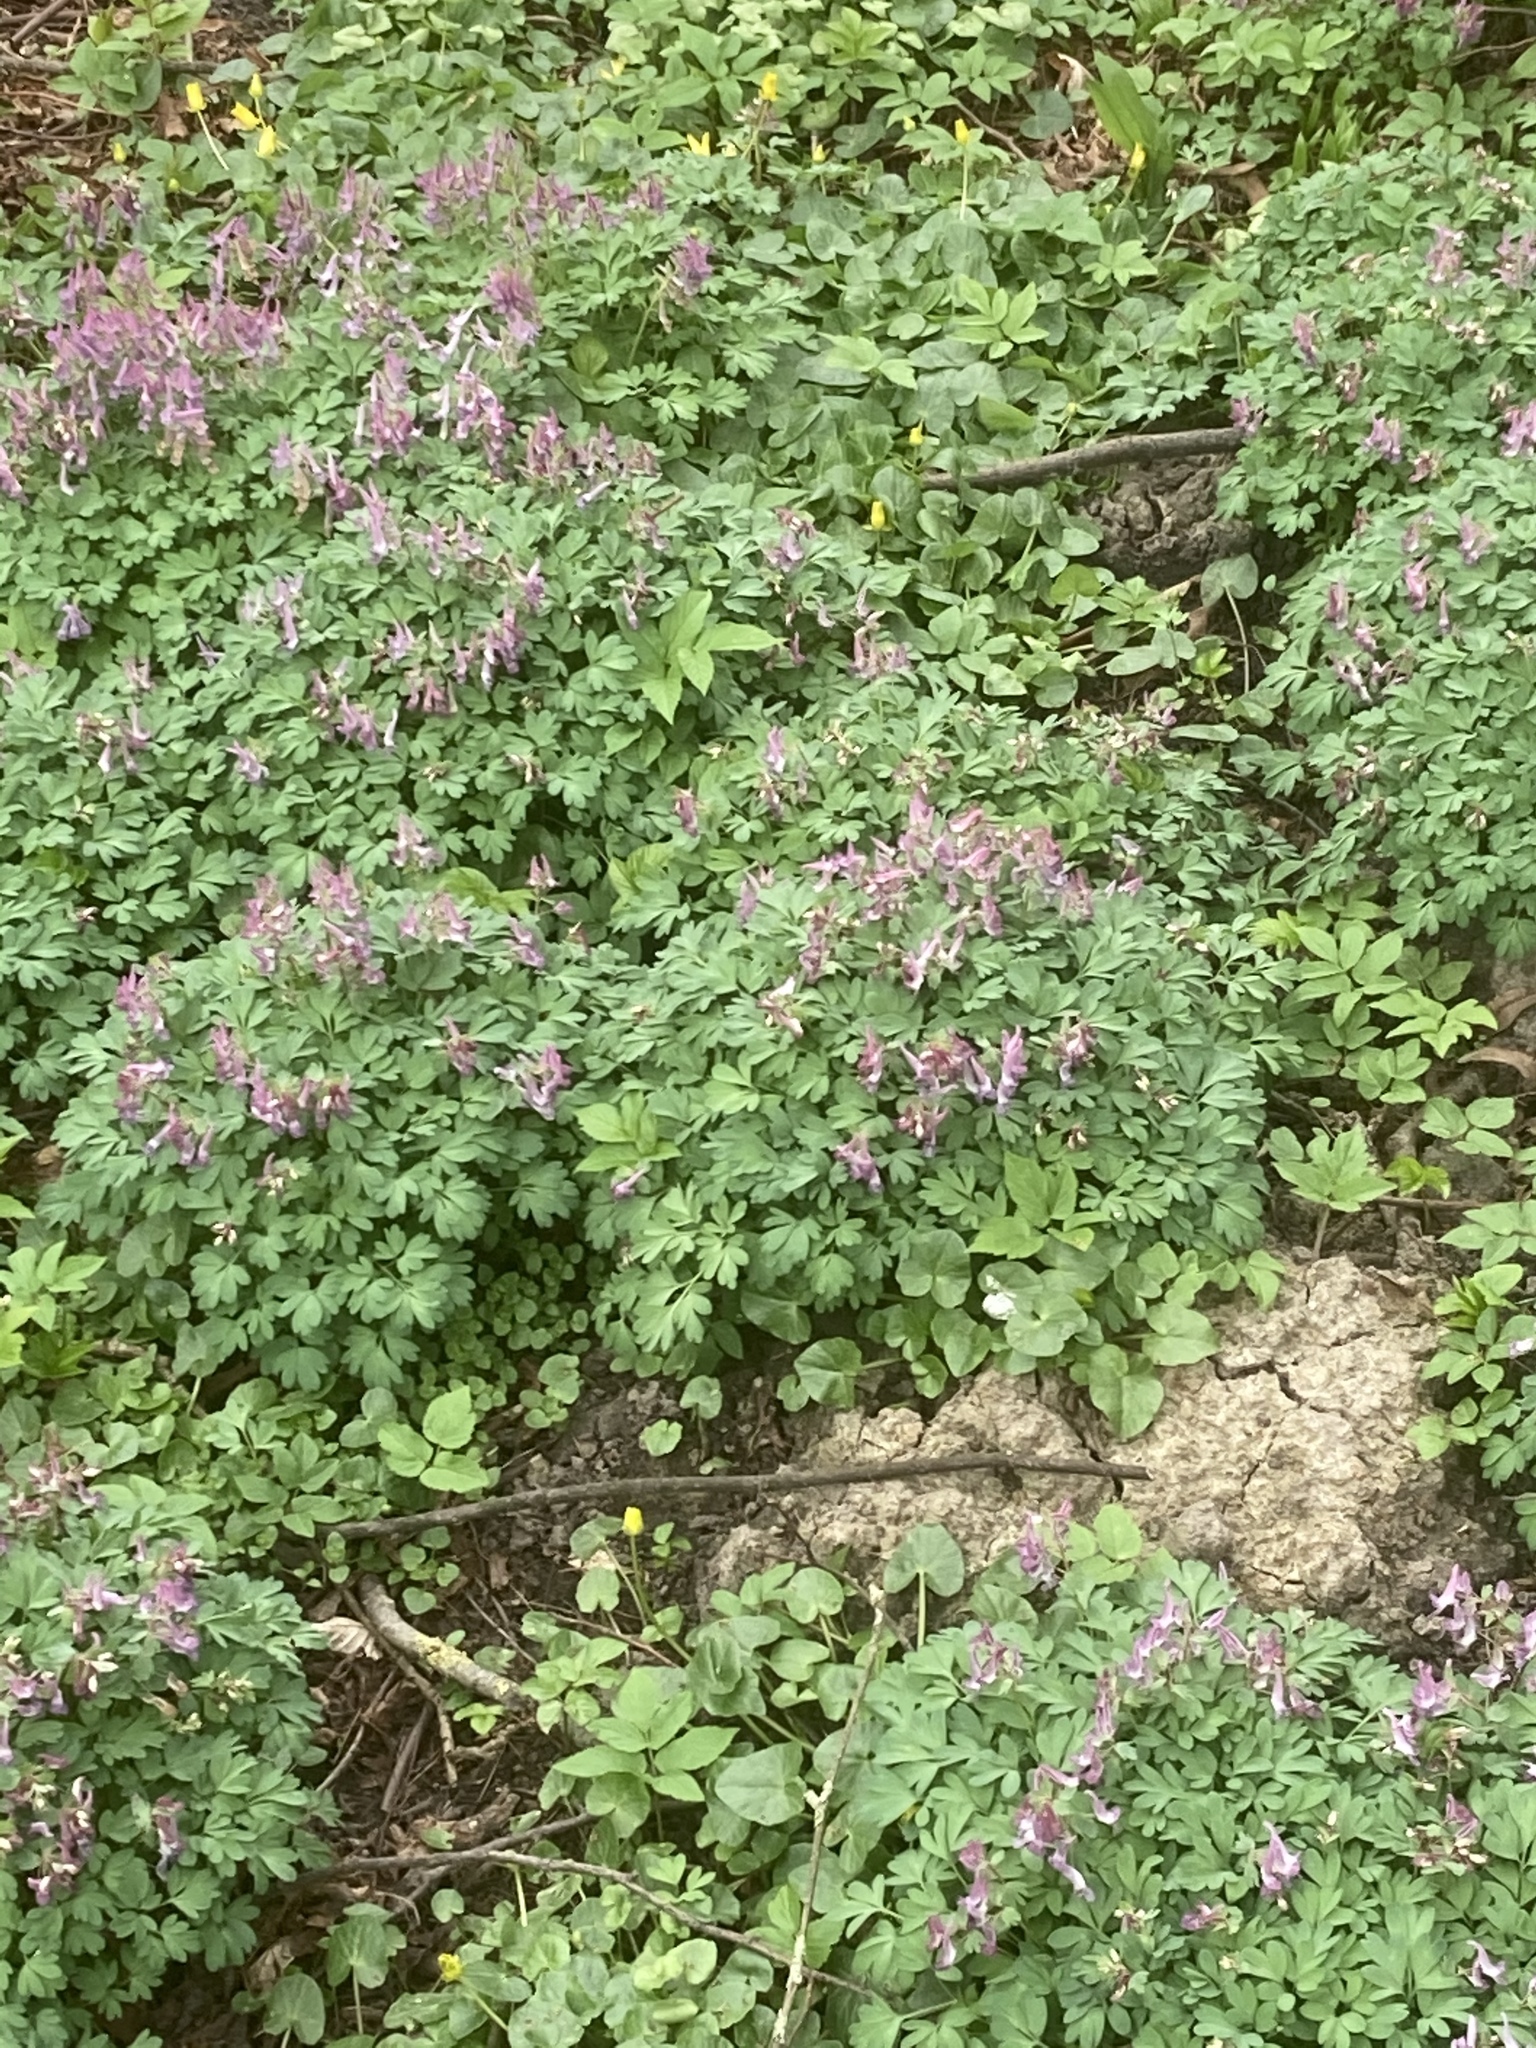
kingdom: Plantae
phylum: Tracheophyta
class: Magnoliopsida
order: Ranunculales
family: Papaveraceae
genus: Corydalis
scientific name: Corydalis solida
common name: Bird-in-a-bush
